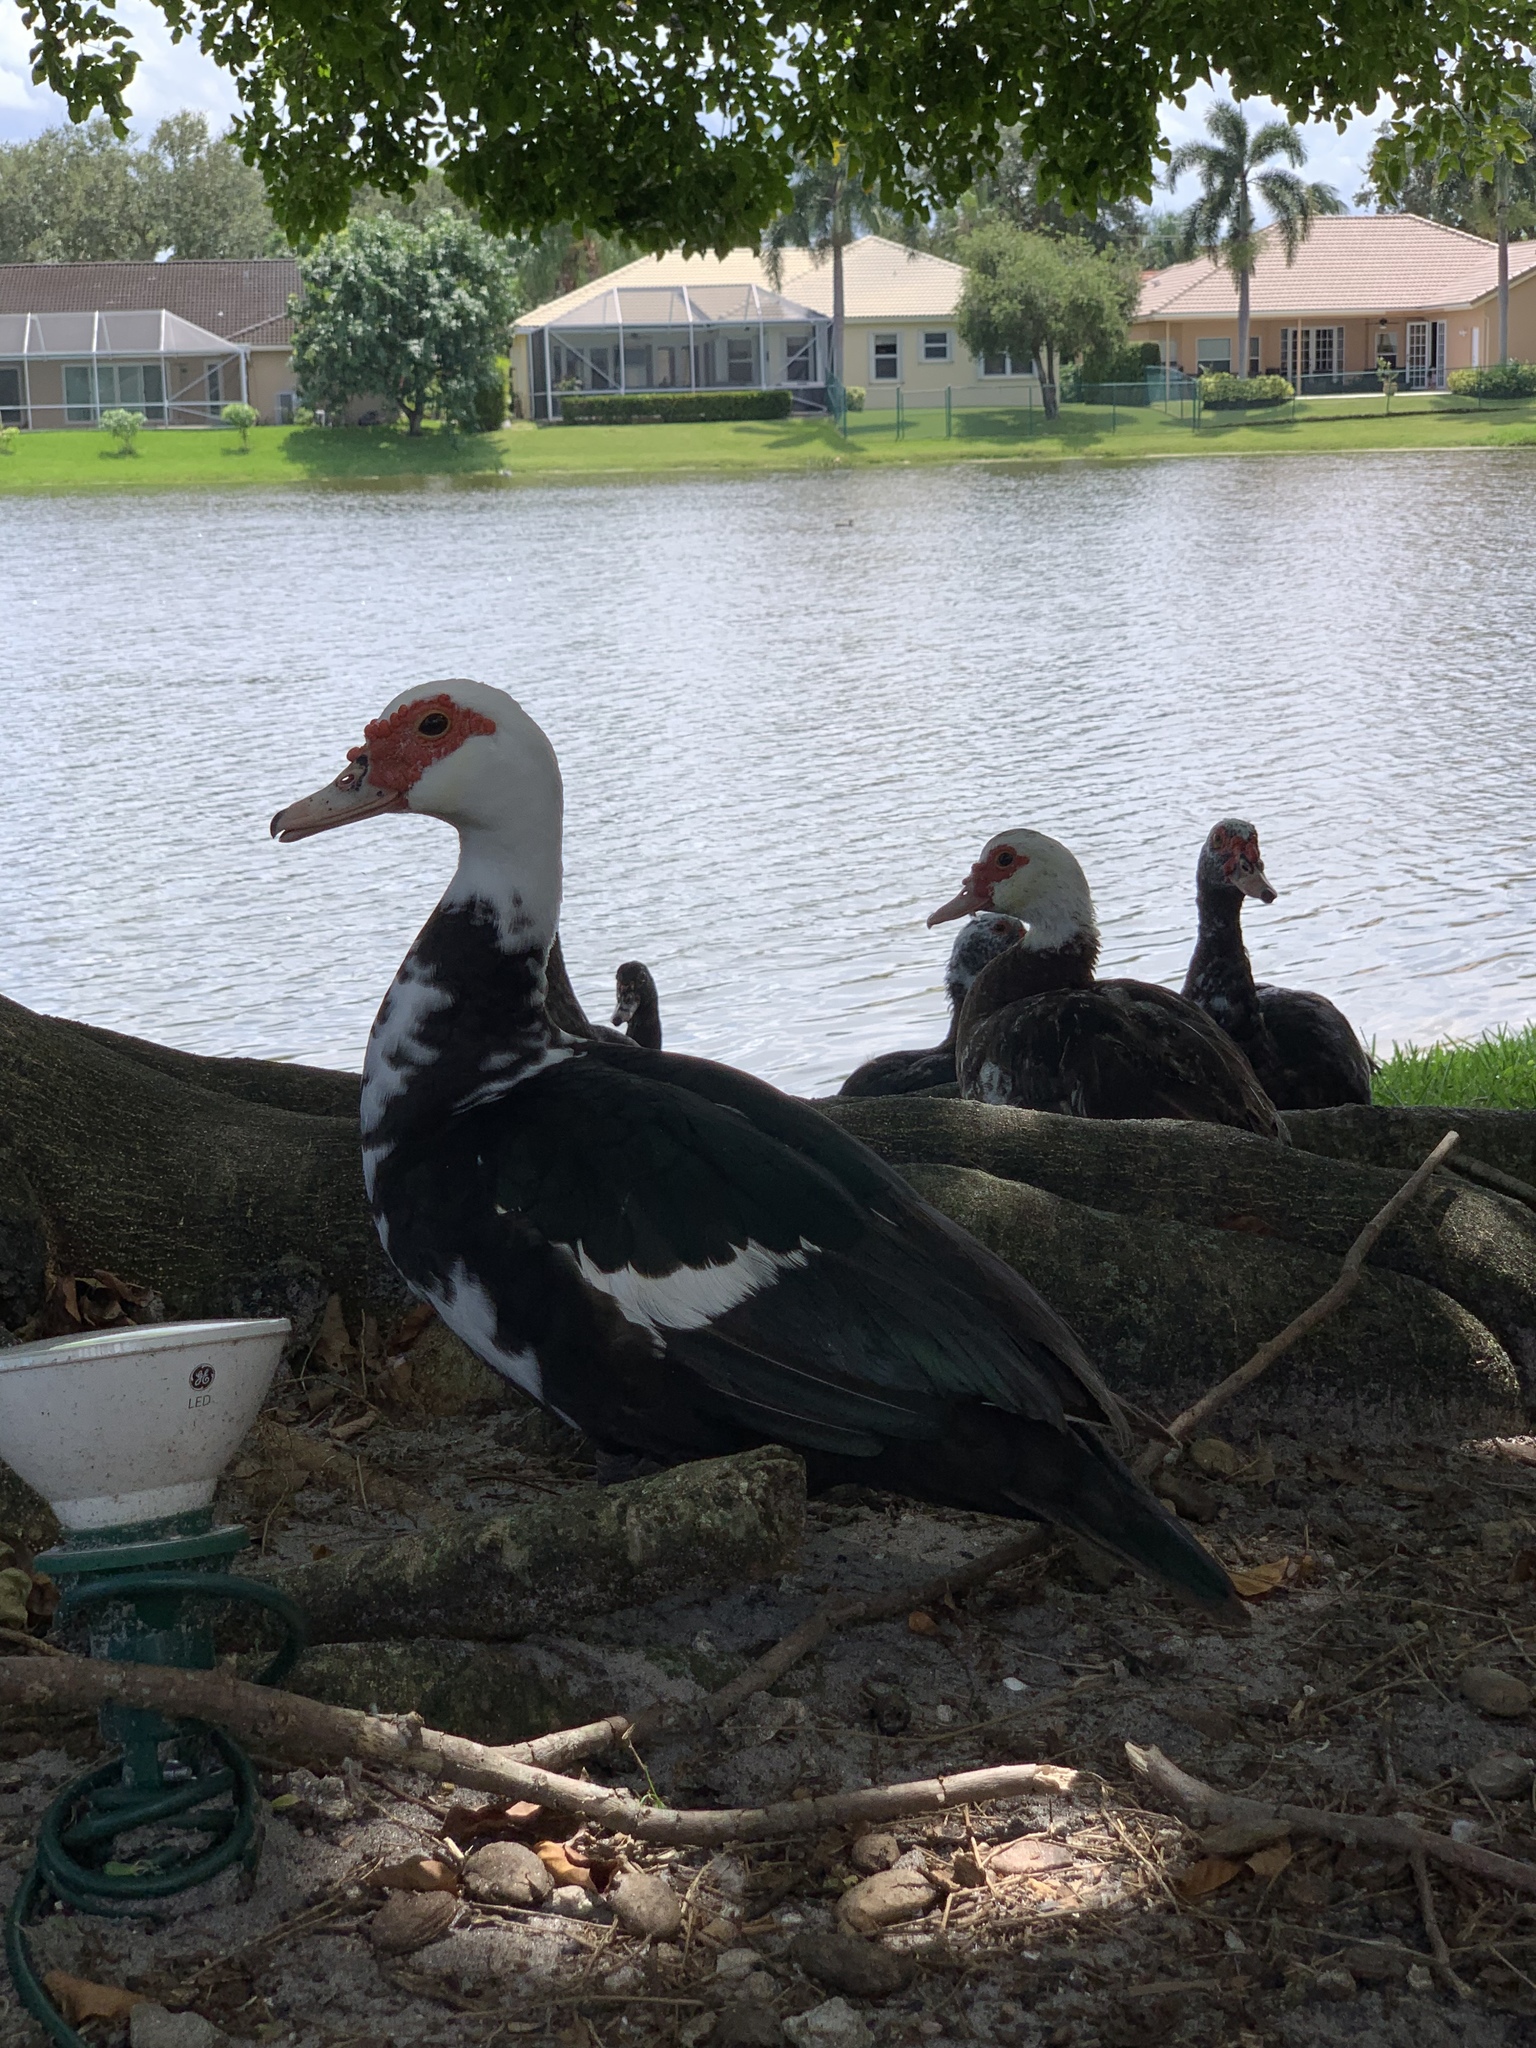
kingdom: Animalia
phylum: Chordata
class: Aves
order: Anseriformes
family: Anatidae
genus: Cairina
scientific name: Cairina moschata
